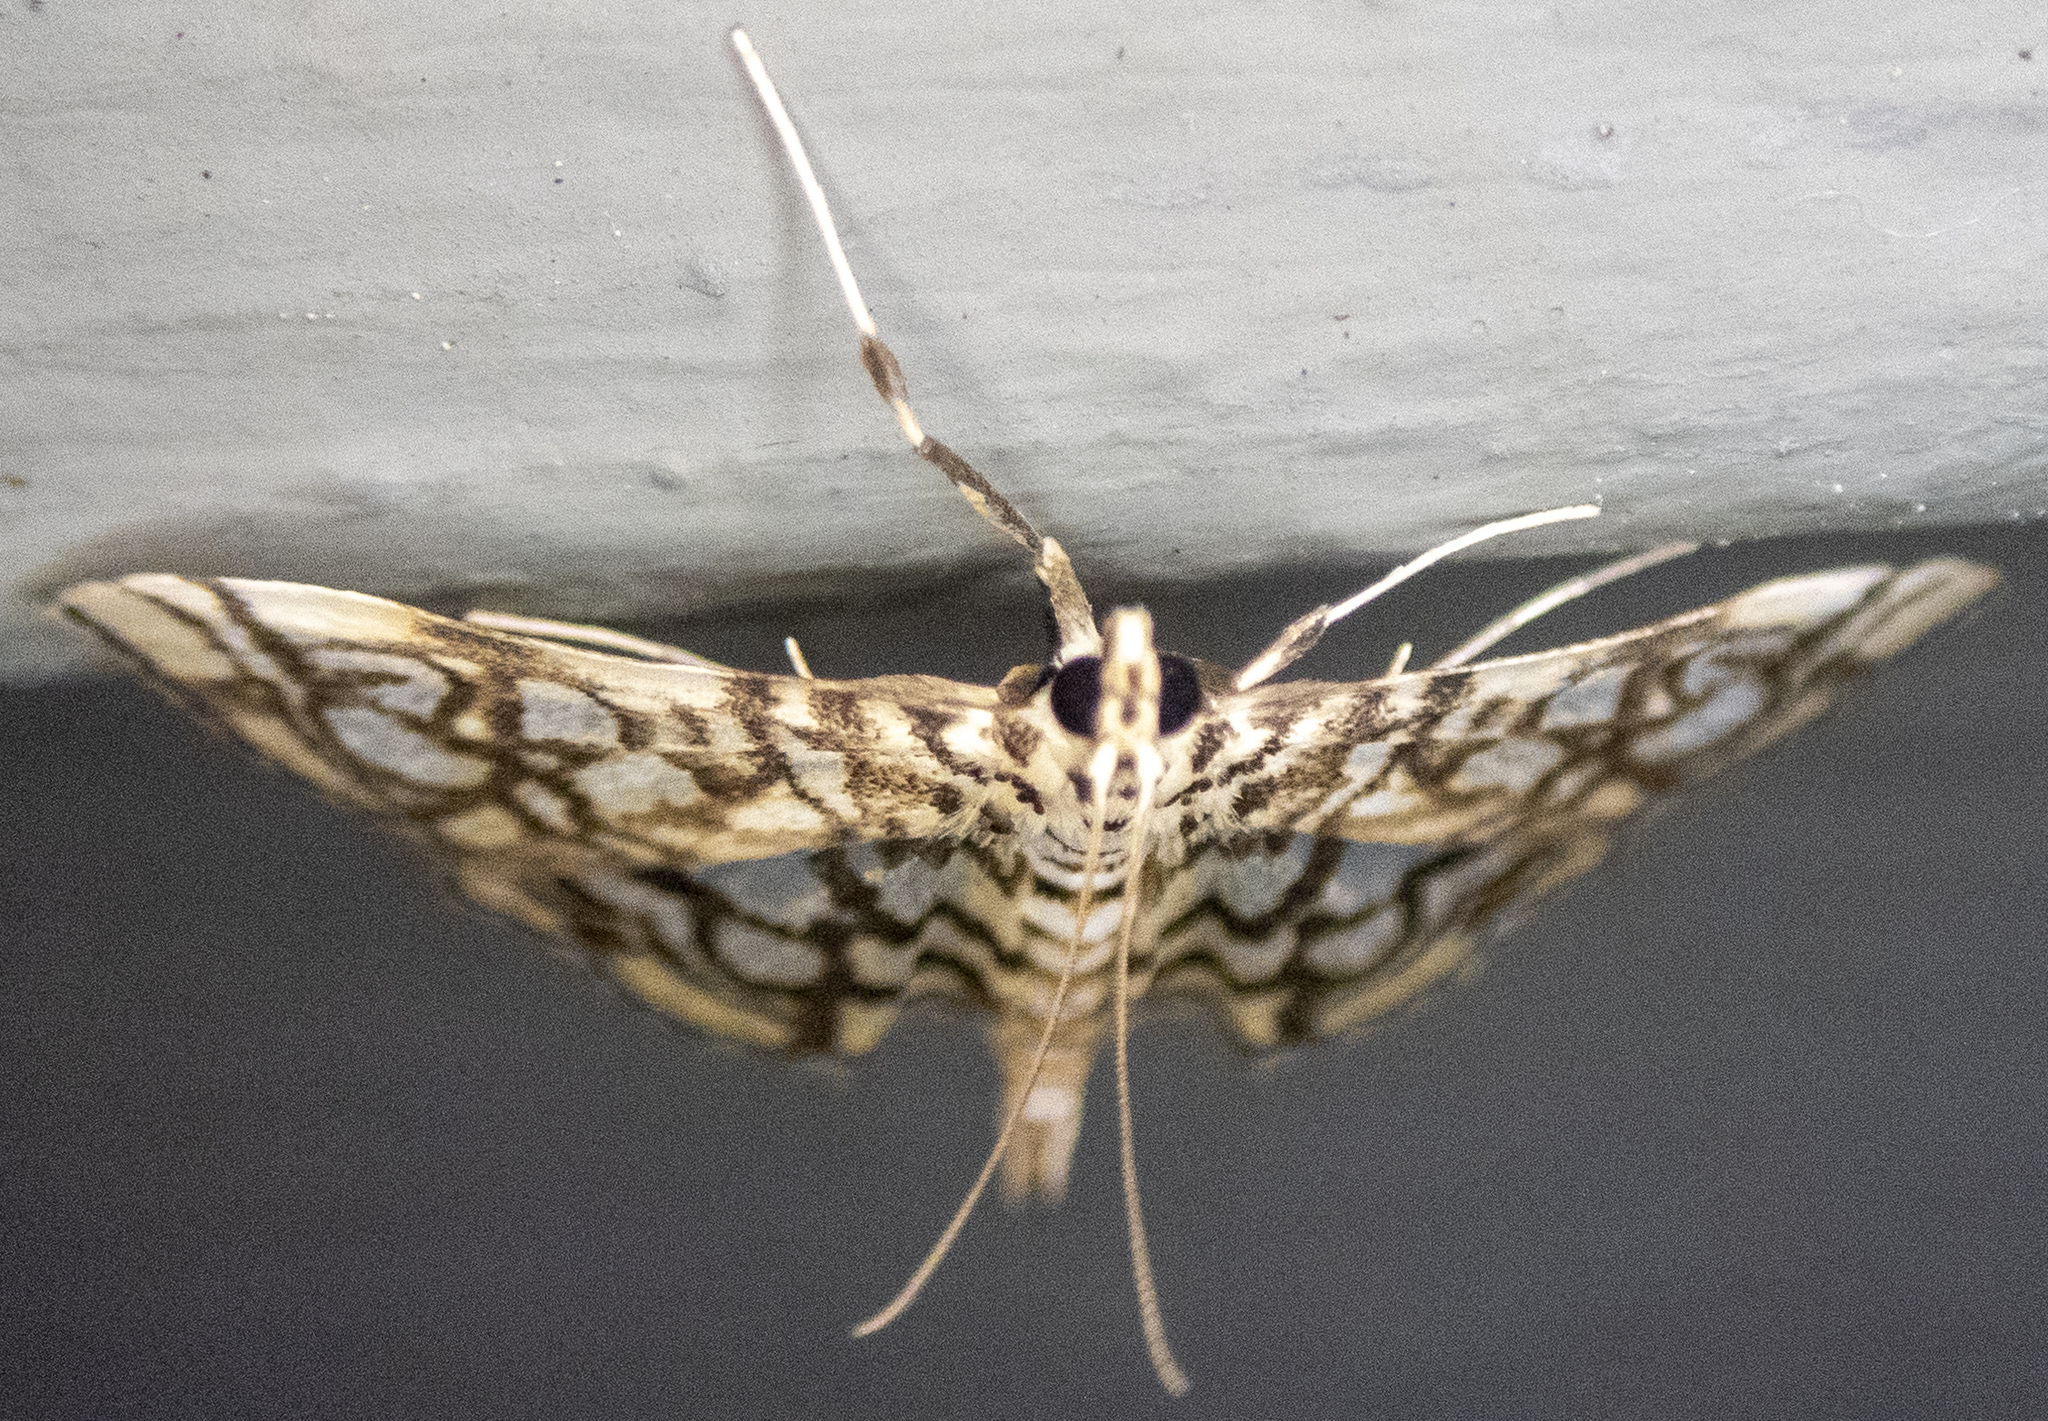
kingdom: Animalia
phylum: Arthropoda
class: Insecta
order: Lepidoptera
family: Crambidae
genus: Lygropia
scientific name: Lygropia rivulalis
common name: Bog lygropia moth
